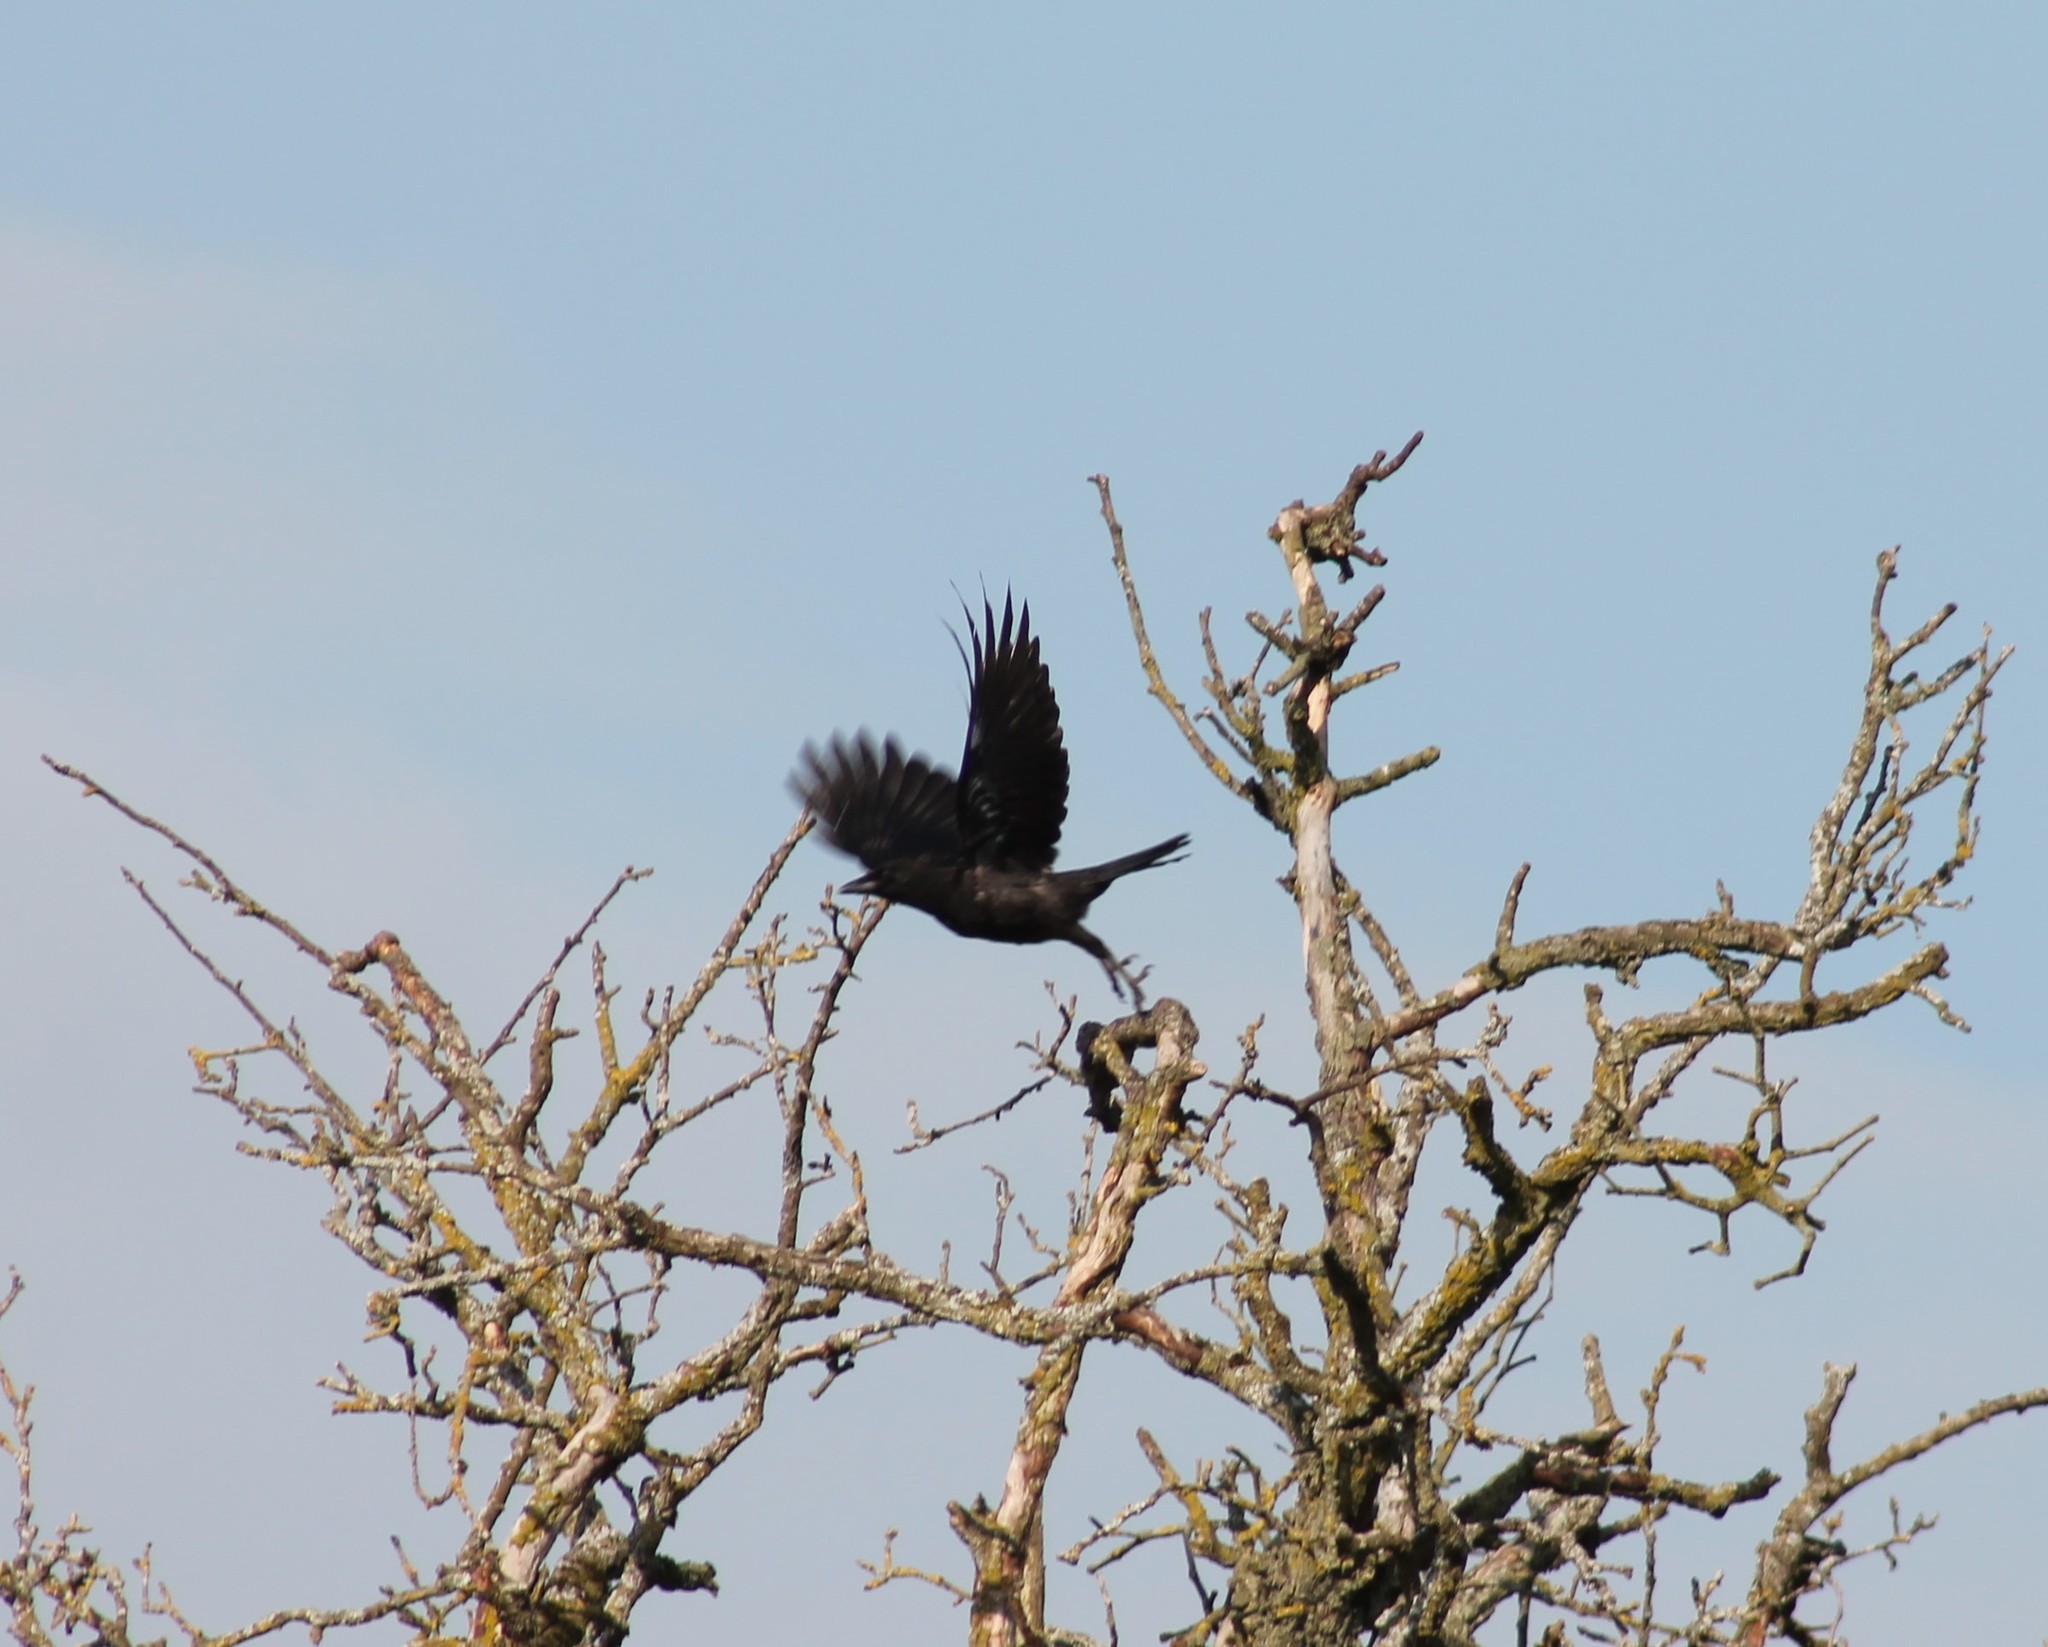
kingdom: Animalia
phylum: Chordata
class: Aves
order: Passeriformes
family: Corvidae
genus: Corvus
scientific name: Corvus corone
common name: Carrion crow
